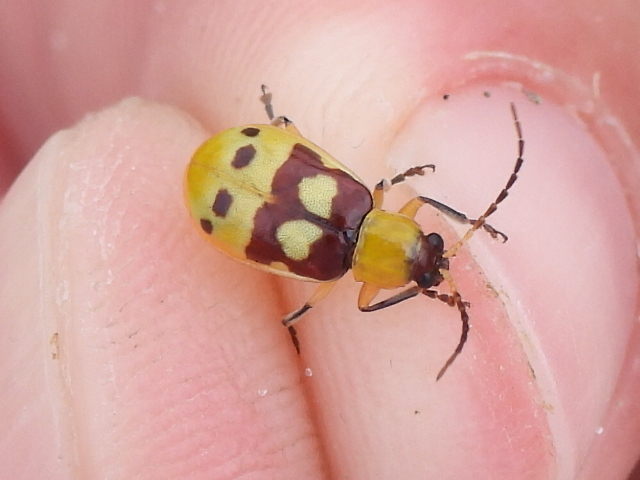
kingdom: Animalia
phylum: Arthropoda
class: Insecta
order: Coleoptera
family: Chrysomelidae
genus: Paranapiacaba
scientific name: Paranapiacaba connexa
